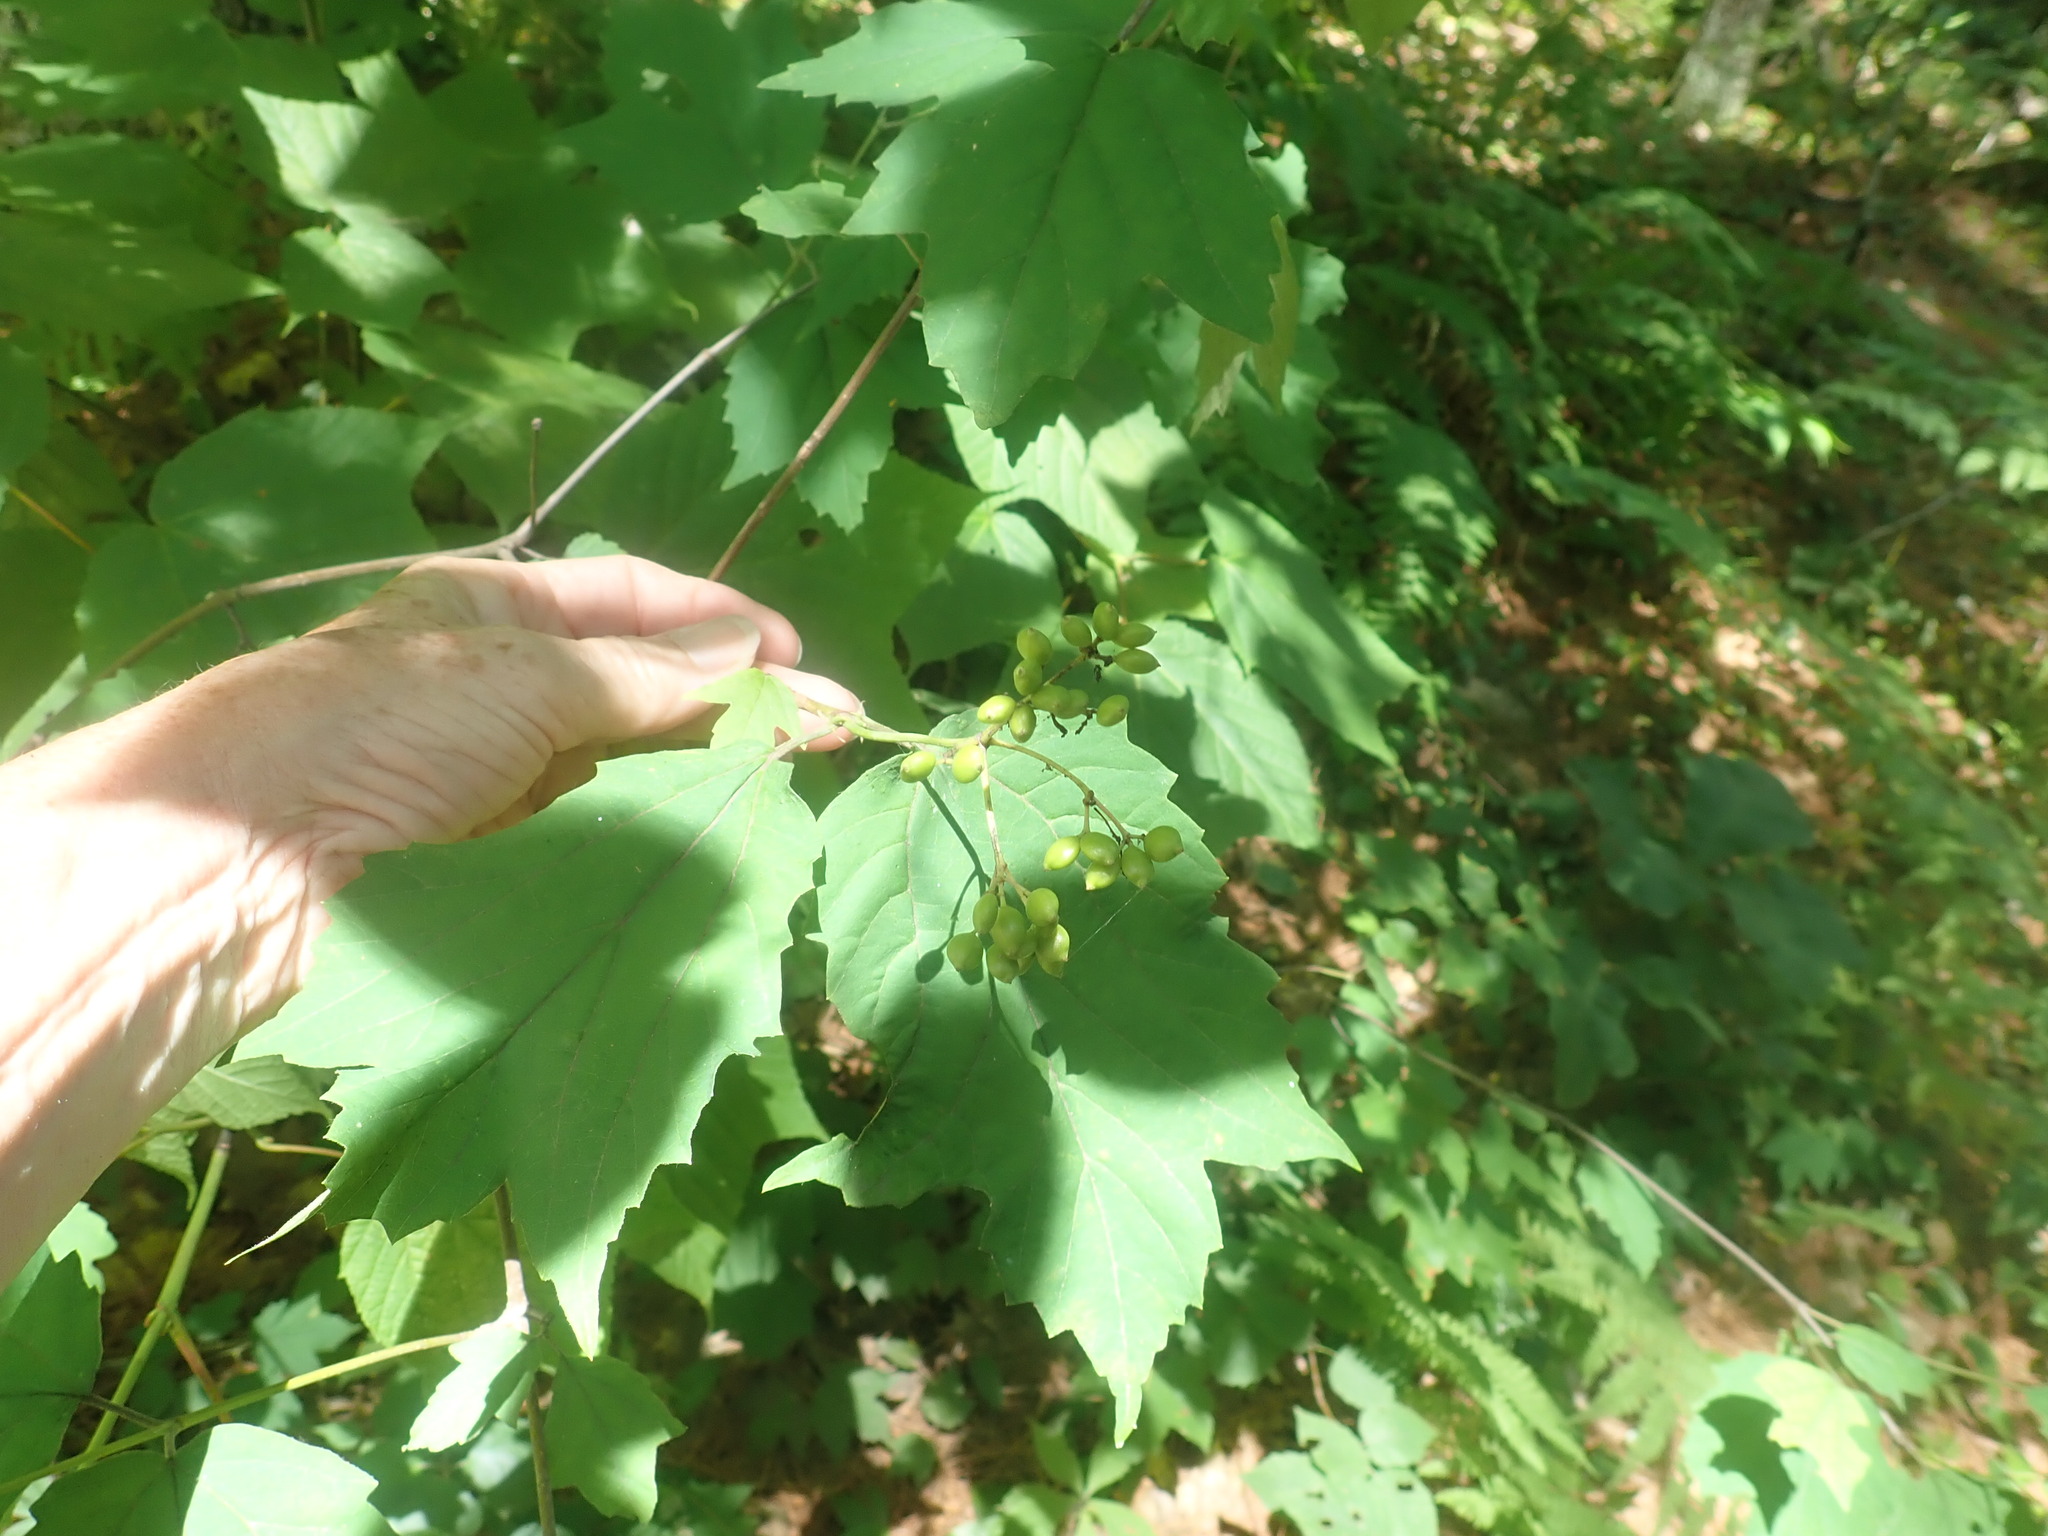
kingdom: Plantae
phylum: Tracheophyta
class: Magnoliopsida
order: Dipsacales
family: Viburnaceae
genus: Viburnum
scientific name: Viburnum acerifolium
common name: Dockmackie
